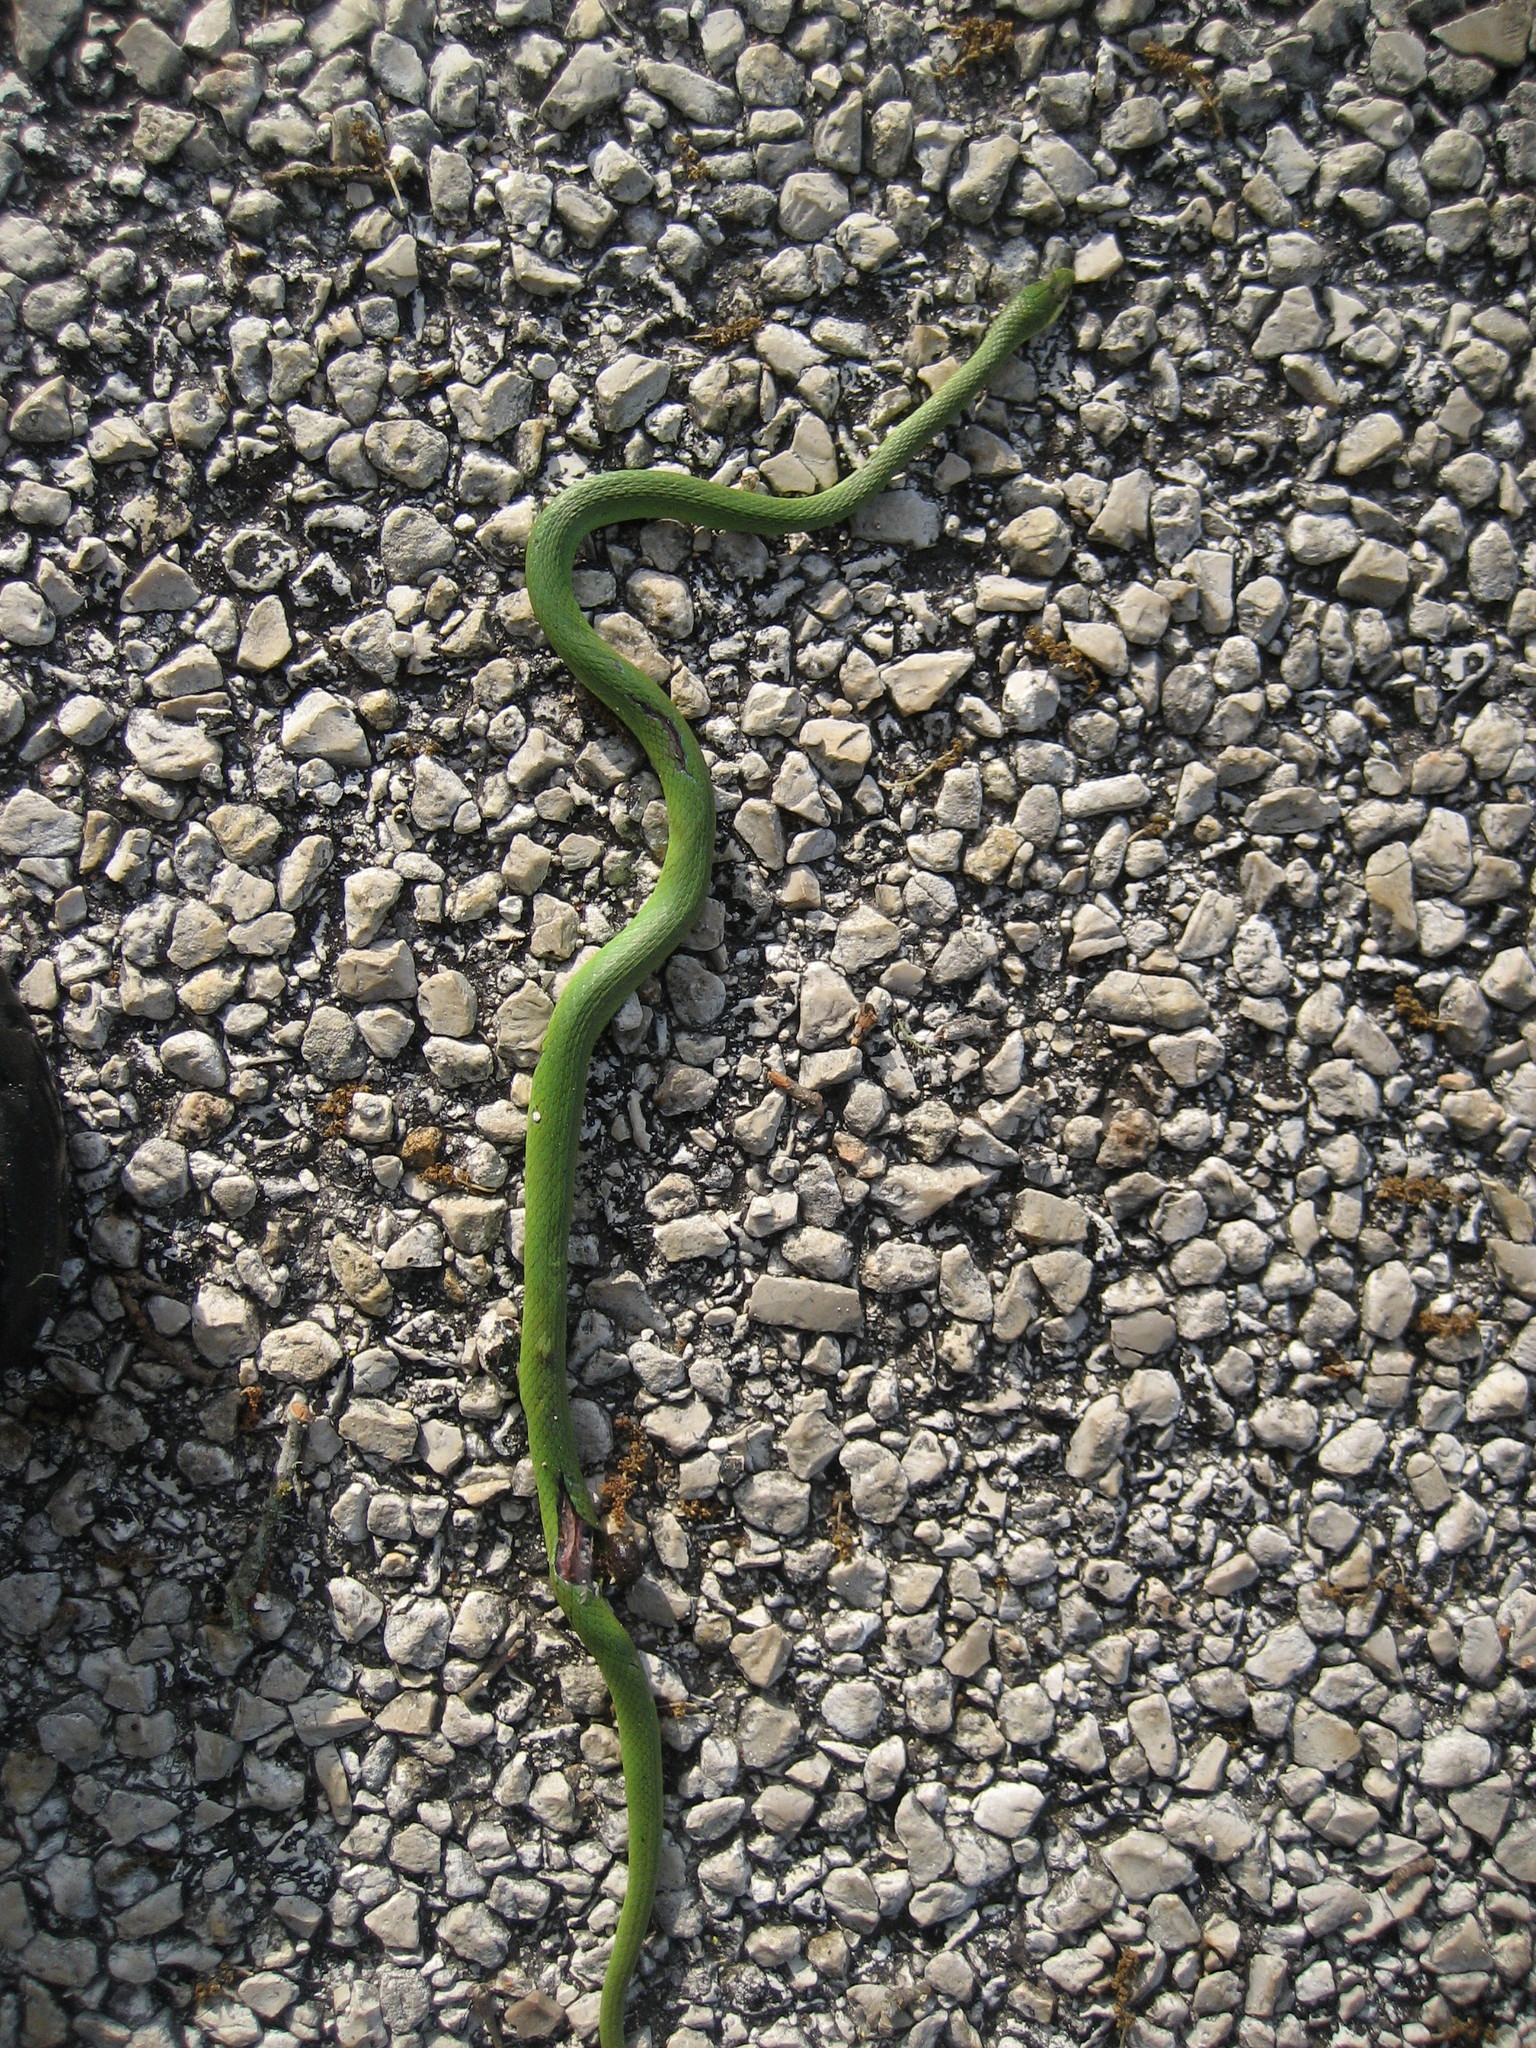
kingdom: Animalia
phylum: Chordata
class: Squamata
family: Colubridae
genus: Opheodrys
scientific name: Opheodrys aestivus
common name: Rough greensnake
